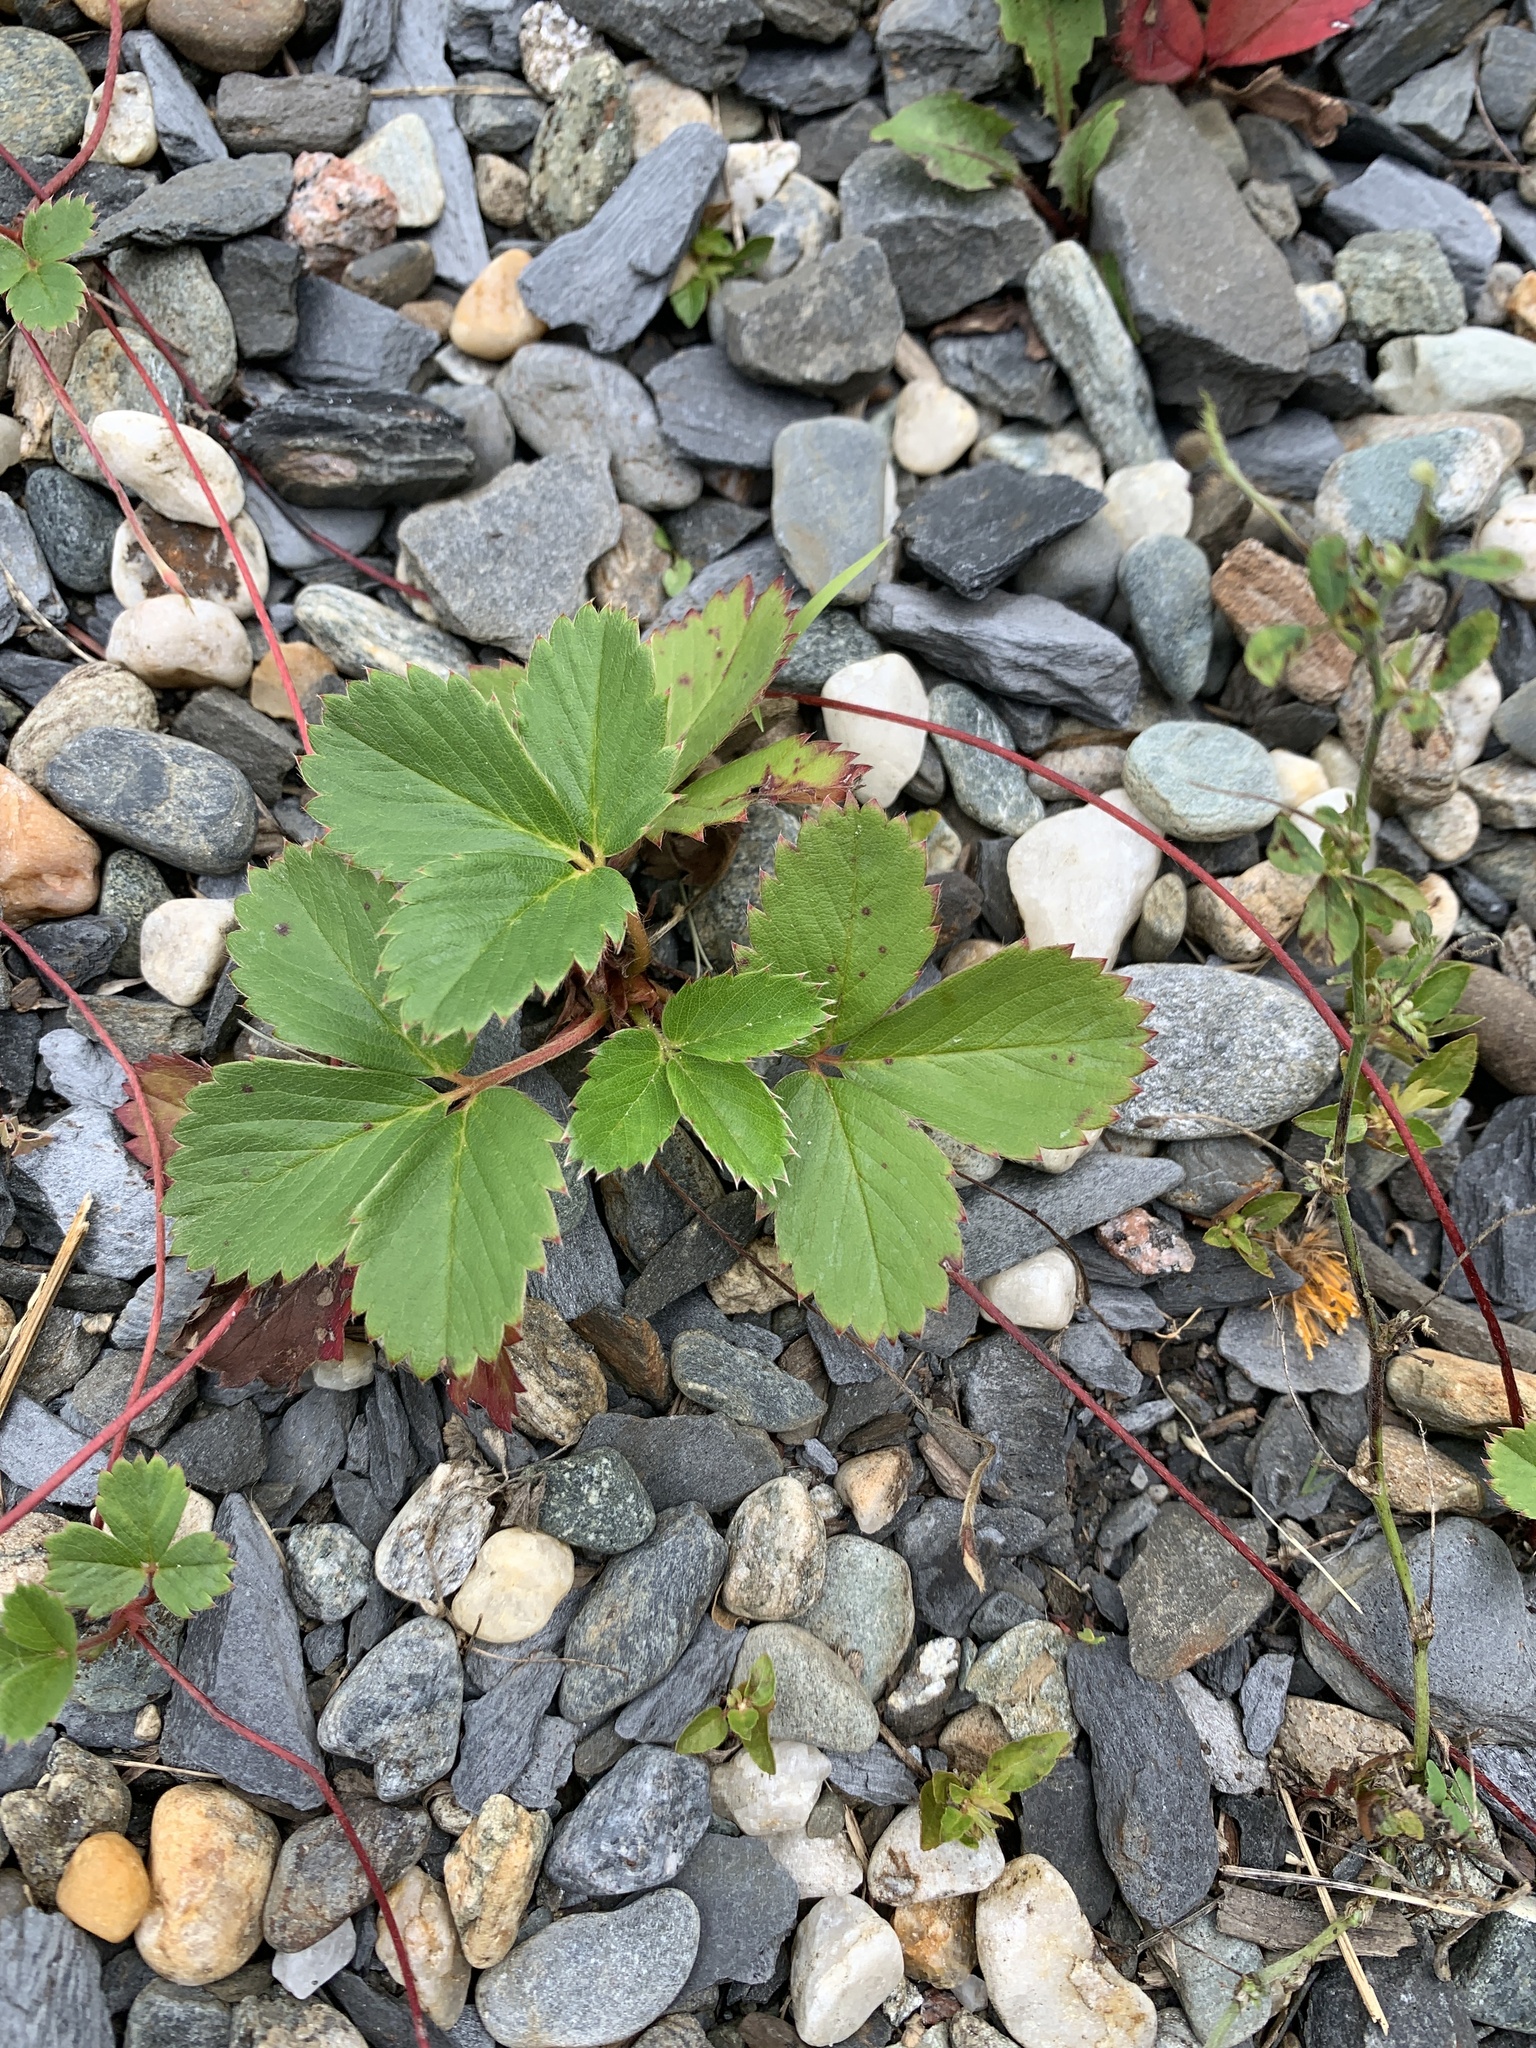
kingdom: Plantae
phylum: Tracheophyta
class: Magnoliopsida
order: Rosales
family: Rosaceae
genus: Fragaria
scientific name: Fragaria virginiana
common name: Thickleaved wild strawberry
